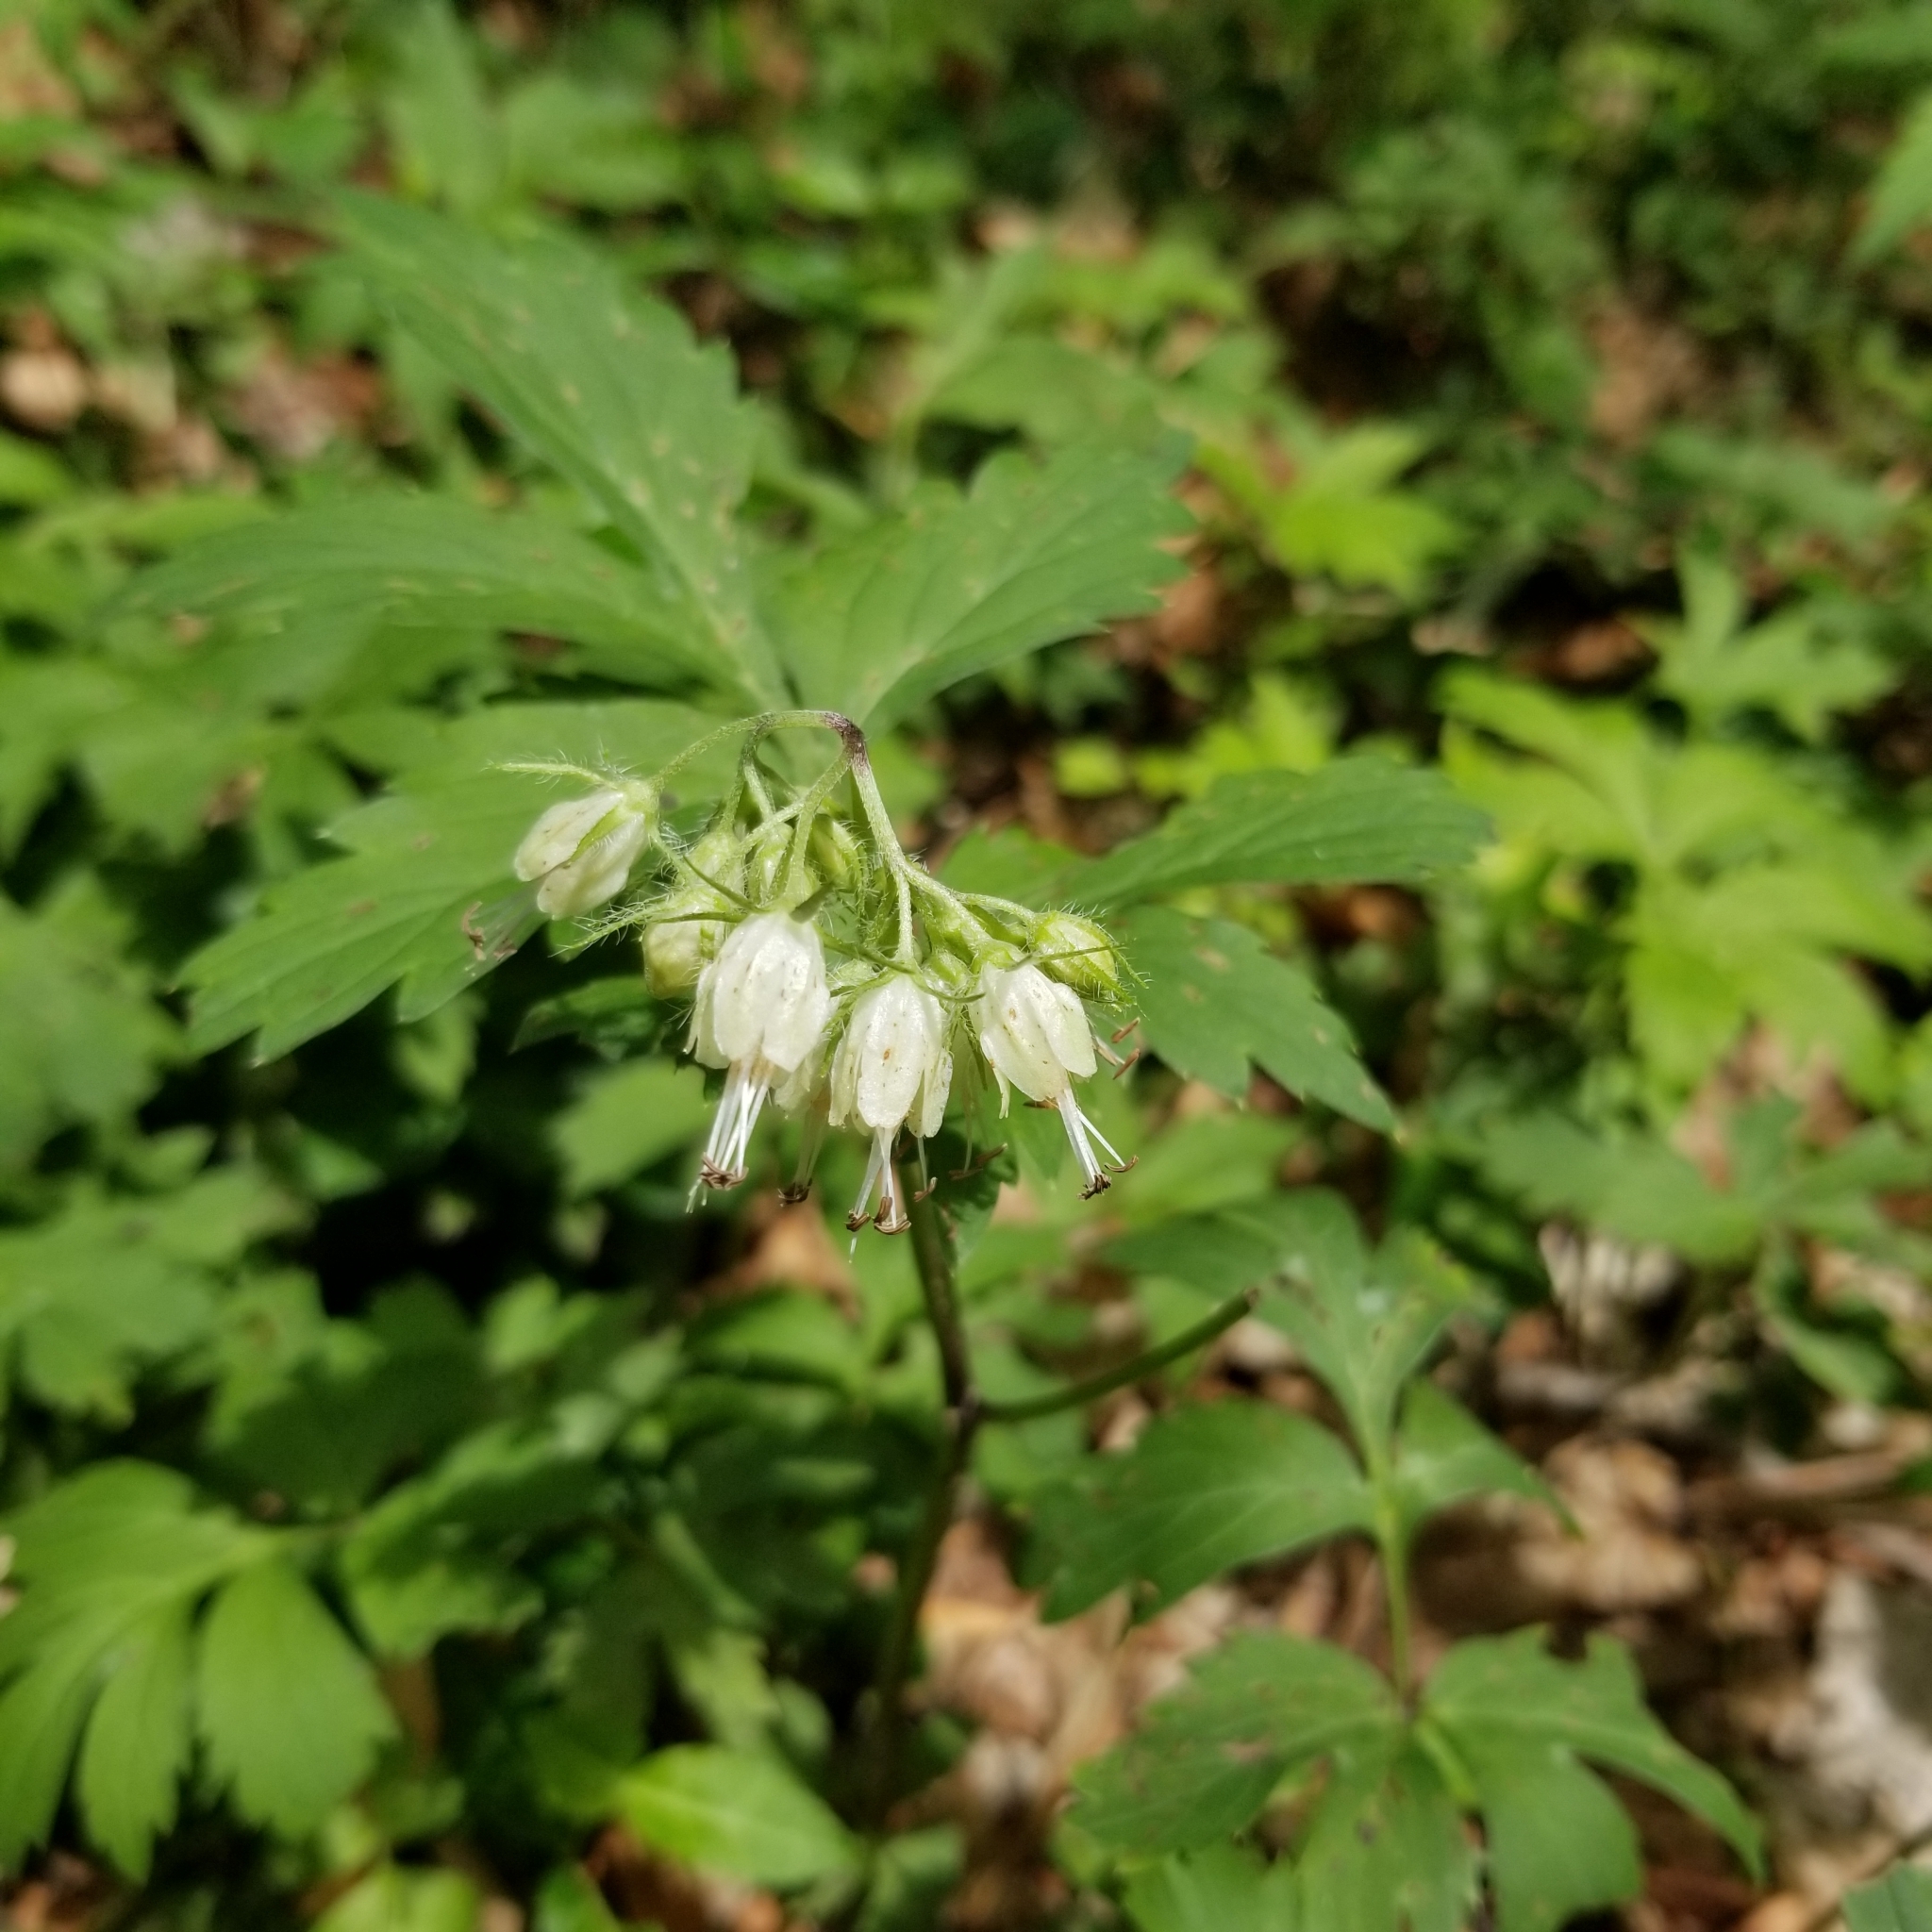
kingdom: Plantae
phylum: Tracheophyta
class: Magnoliopsida
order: Boraginales
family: Hydrophyllaceae
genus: Hydrophyllum
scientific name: Hydrophyllum virginianum
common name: Virginia waterleaf
